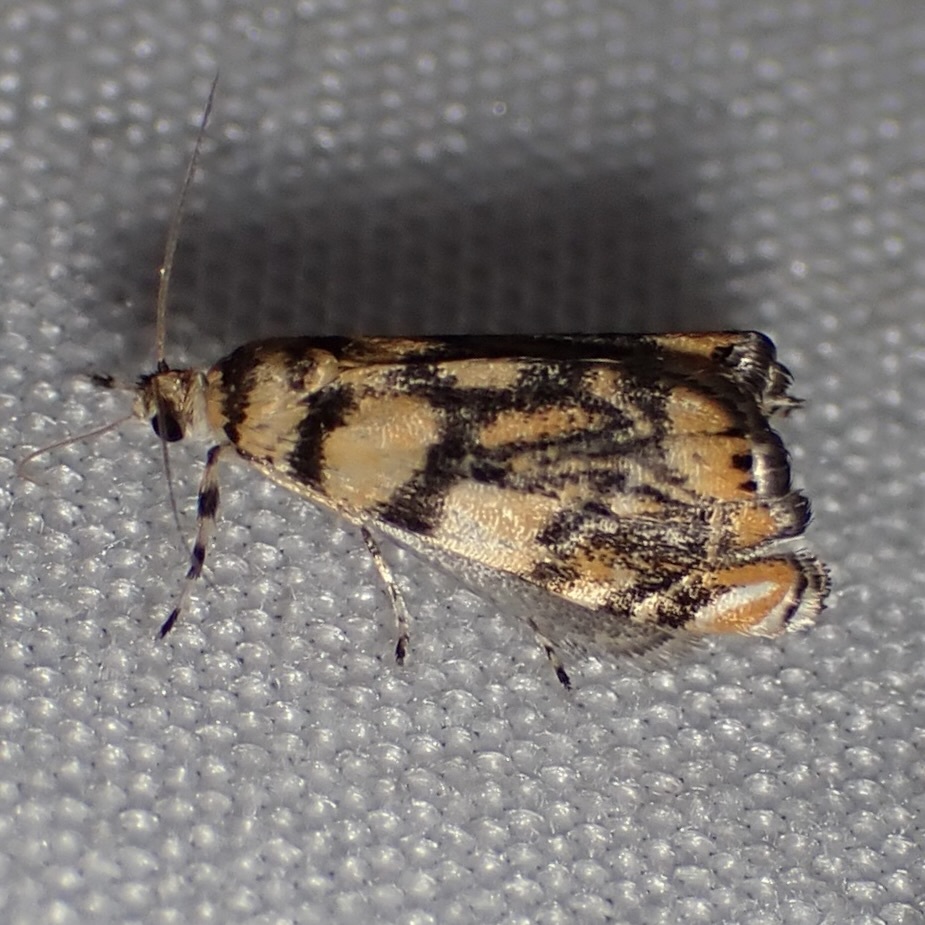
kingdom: Animalia
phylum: Arthropoda
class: Insecta
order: Lepidoptera
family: Crambidae
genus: Diptychophora
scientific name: Diptychophora harlequinalis
